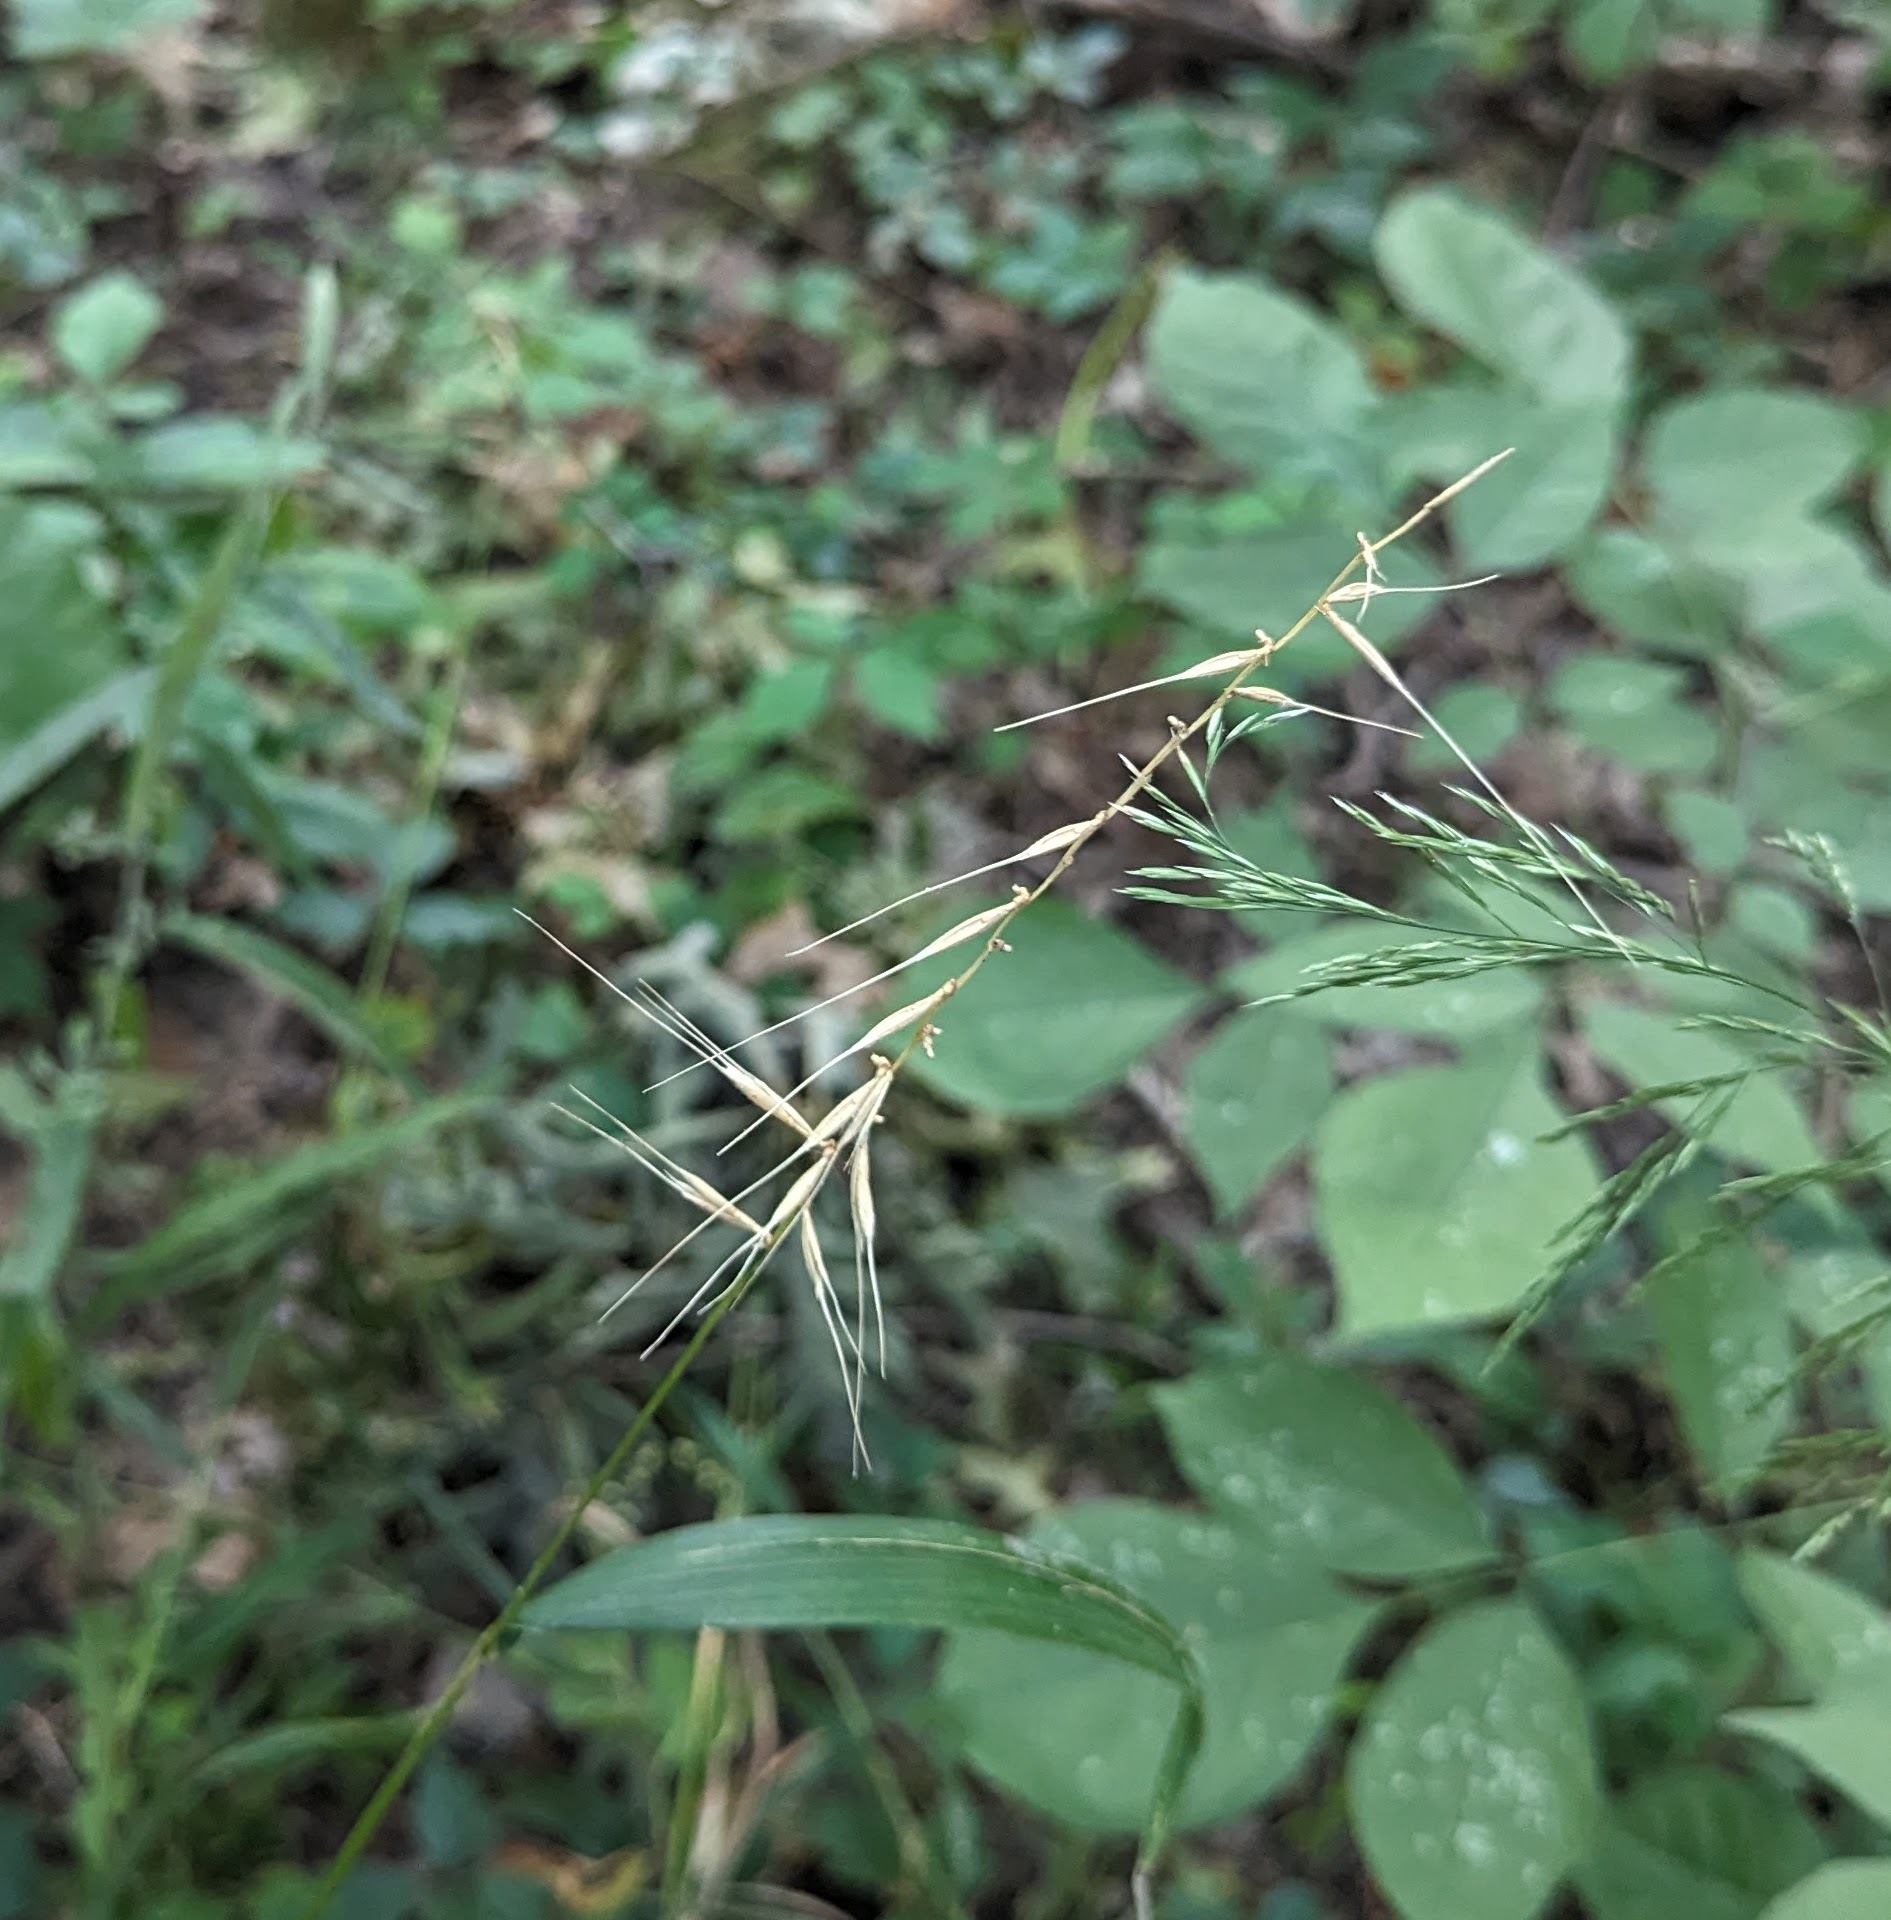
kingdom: Plantae
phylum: Tracheophyta
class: Liliopsida
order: Poales
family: Poaceae
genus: Elymus
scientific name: Elymus hystrix
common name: Bottlebrush grass
